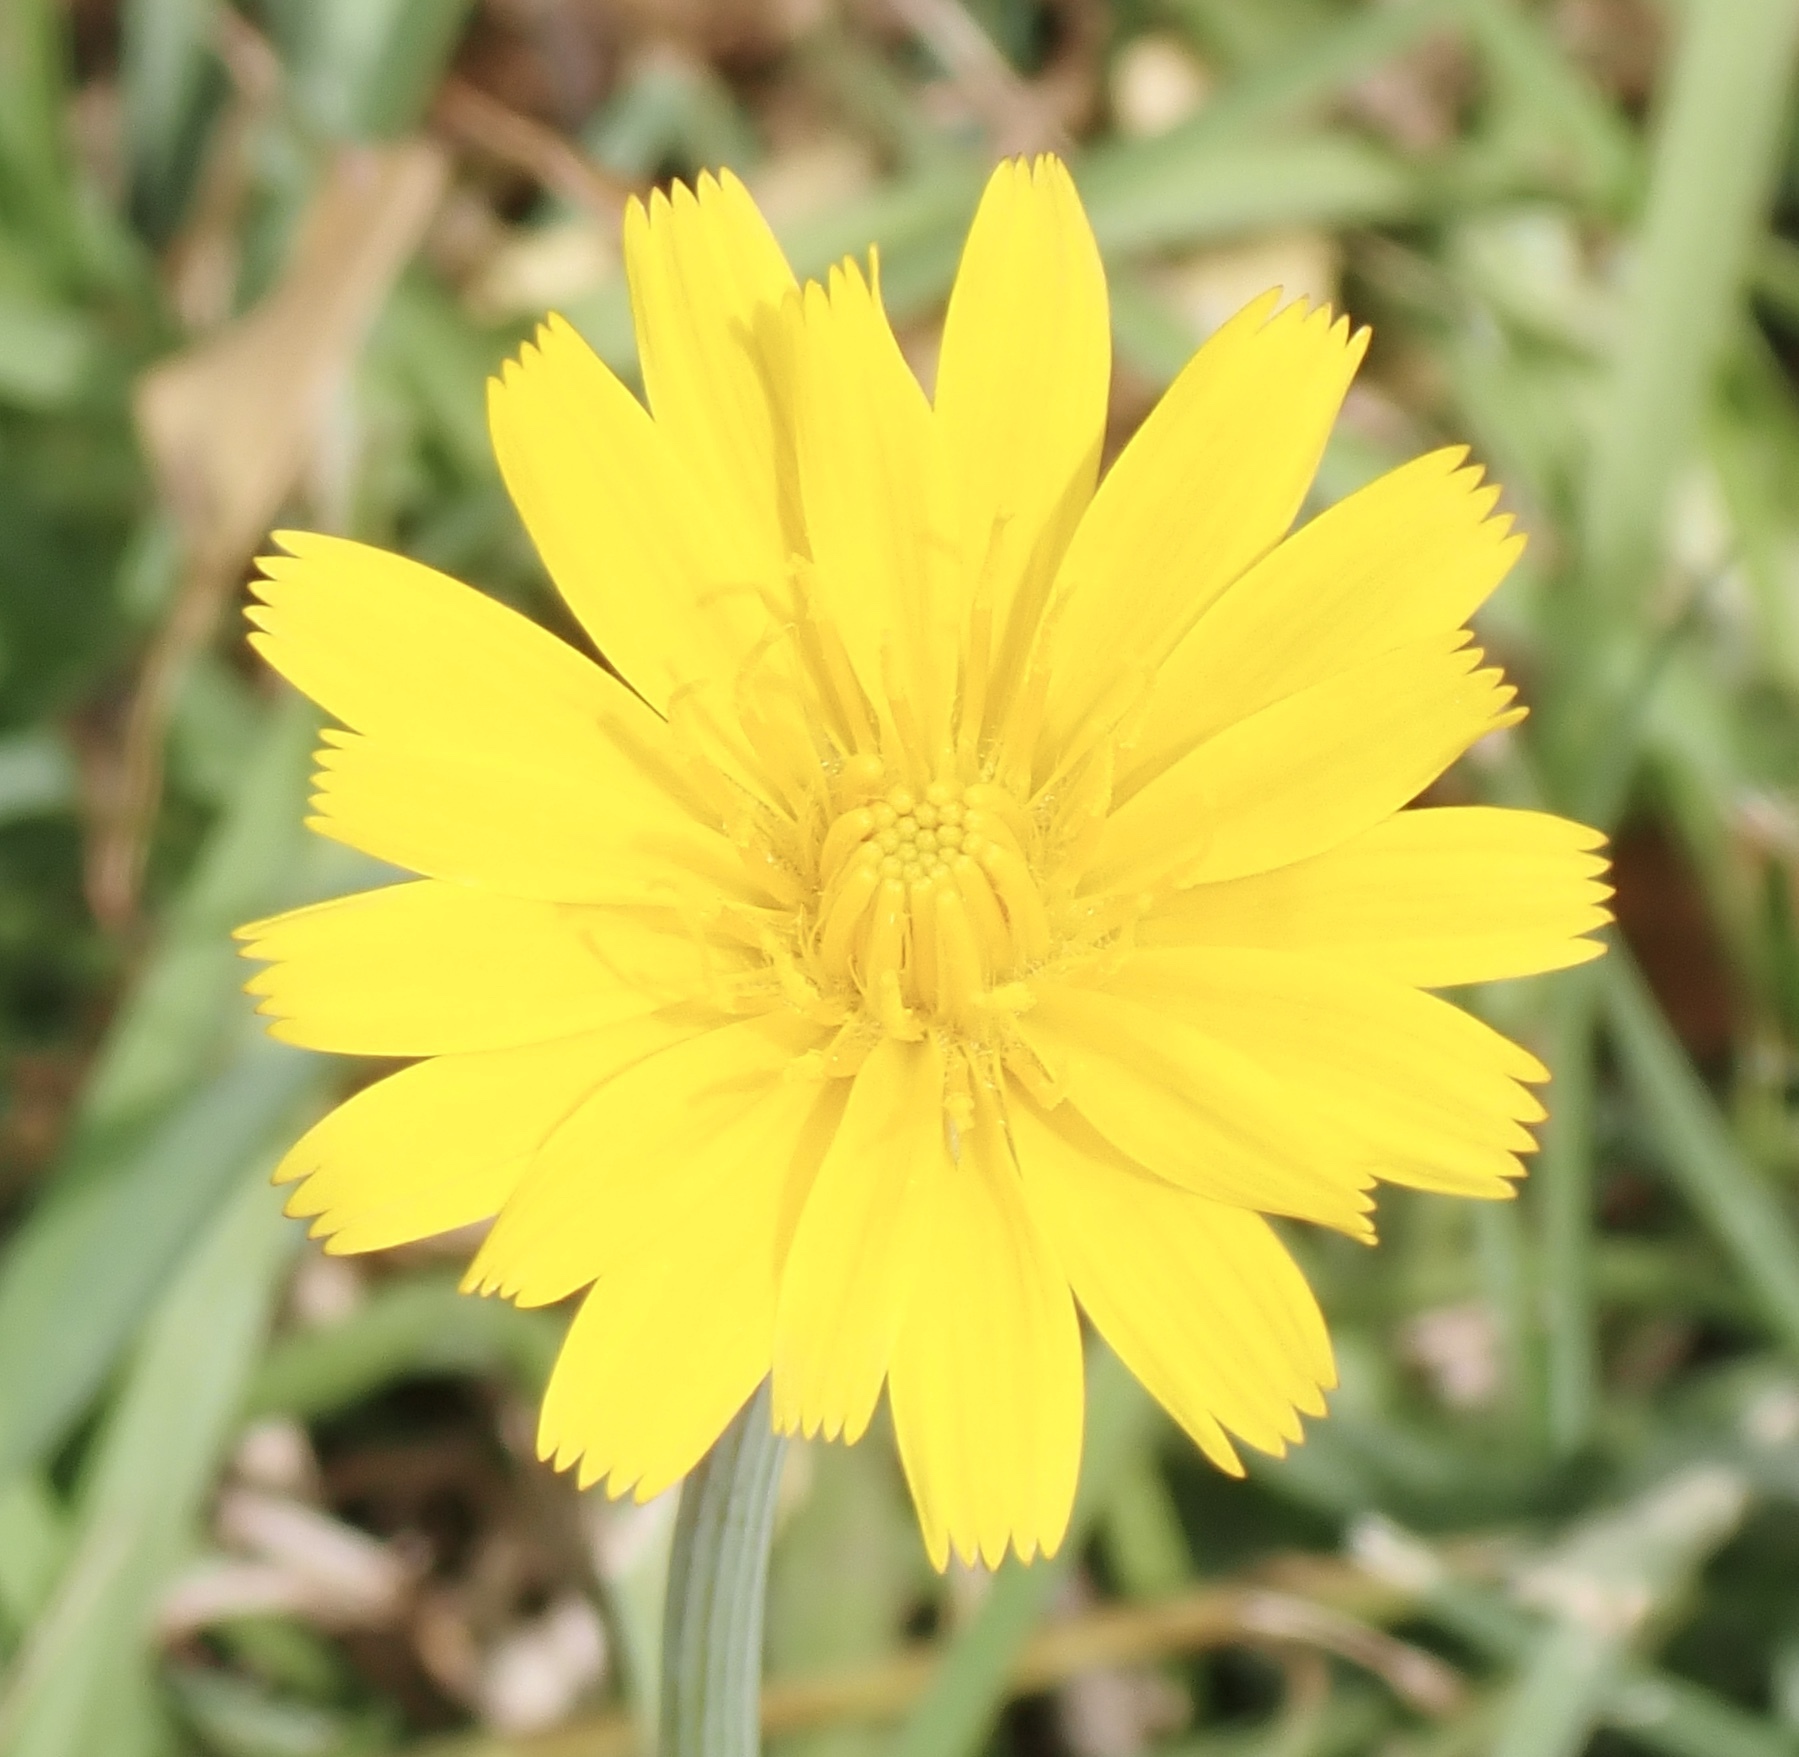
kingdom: Plantae
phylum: Tracheophyta
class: Magnoliopsida
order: Asterales
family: Asteraceae
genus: Krigia
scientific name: Krigia dandelion
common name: Colonial dwarf-dandelion
